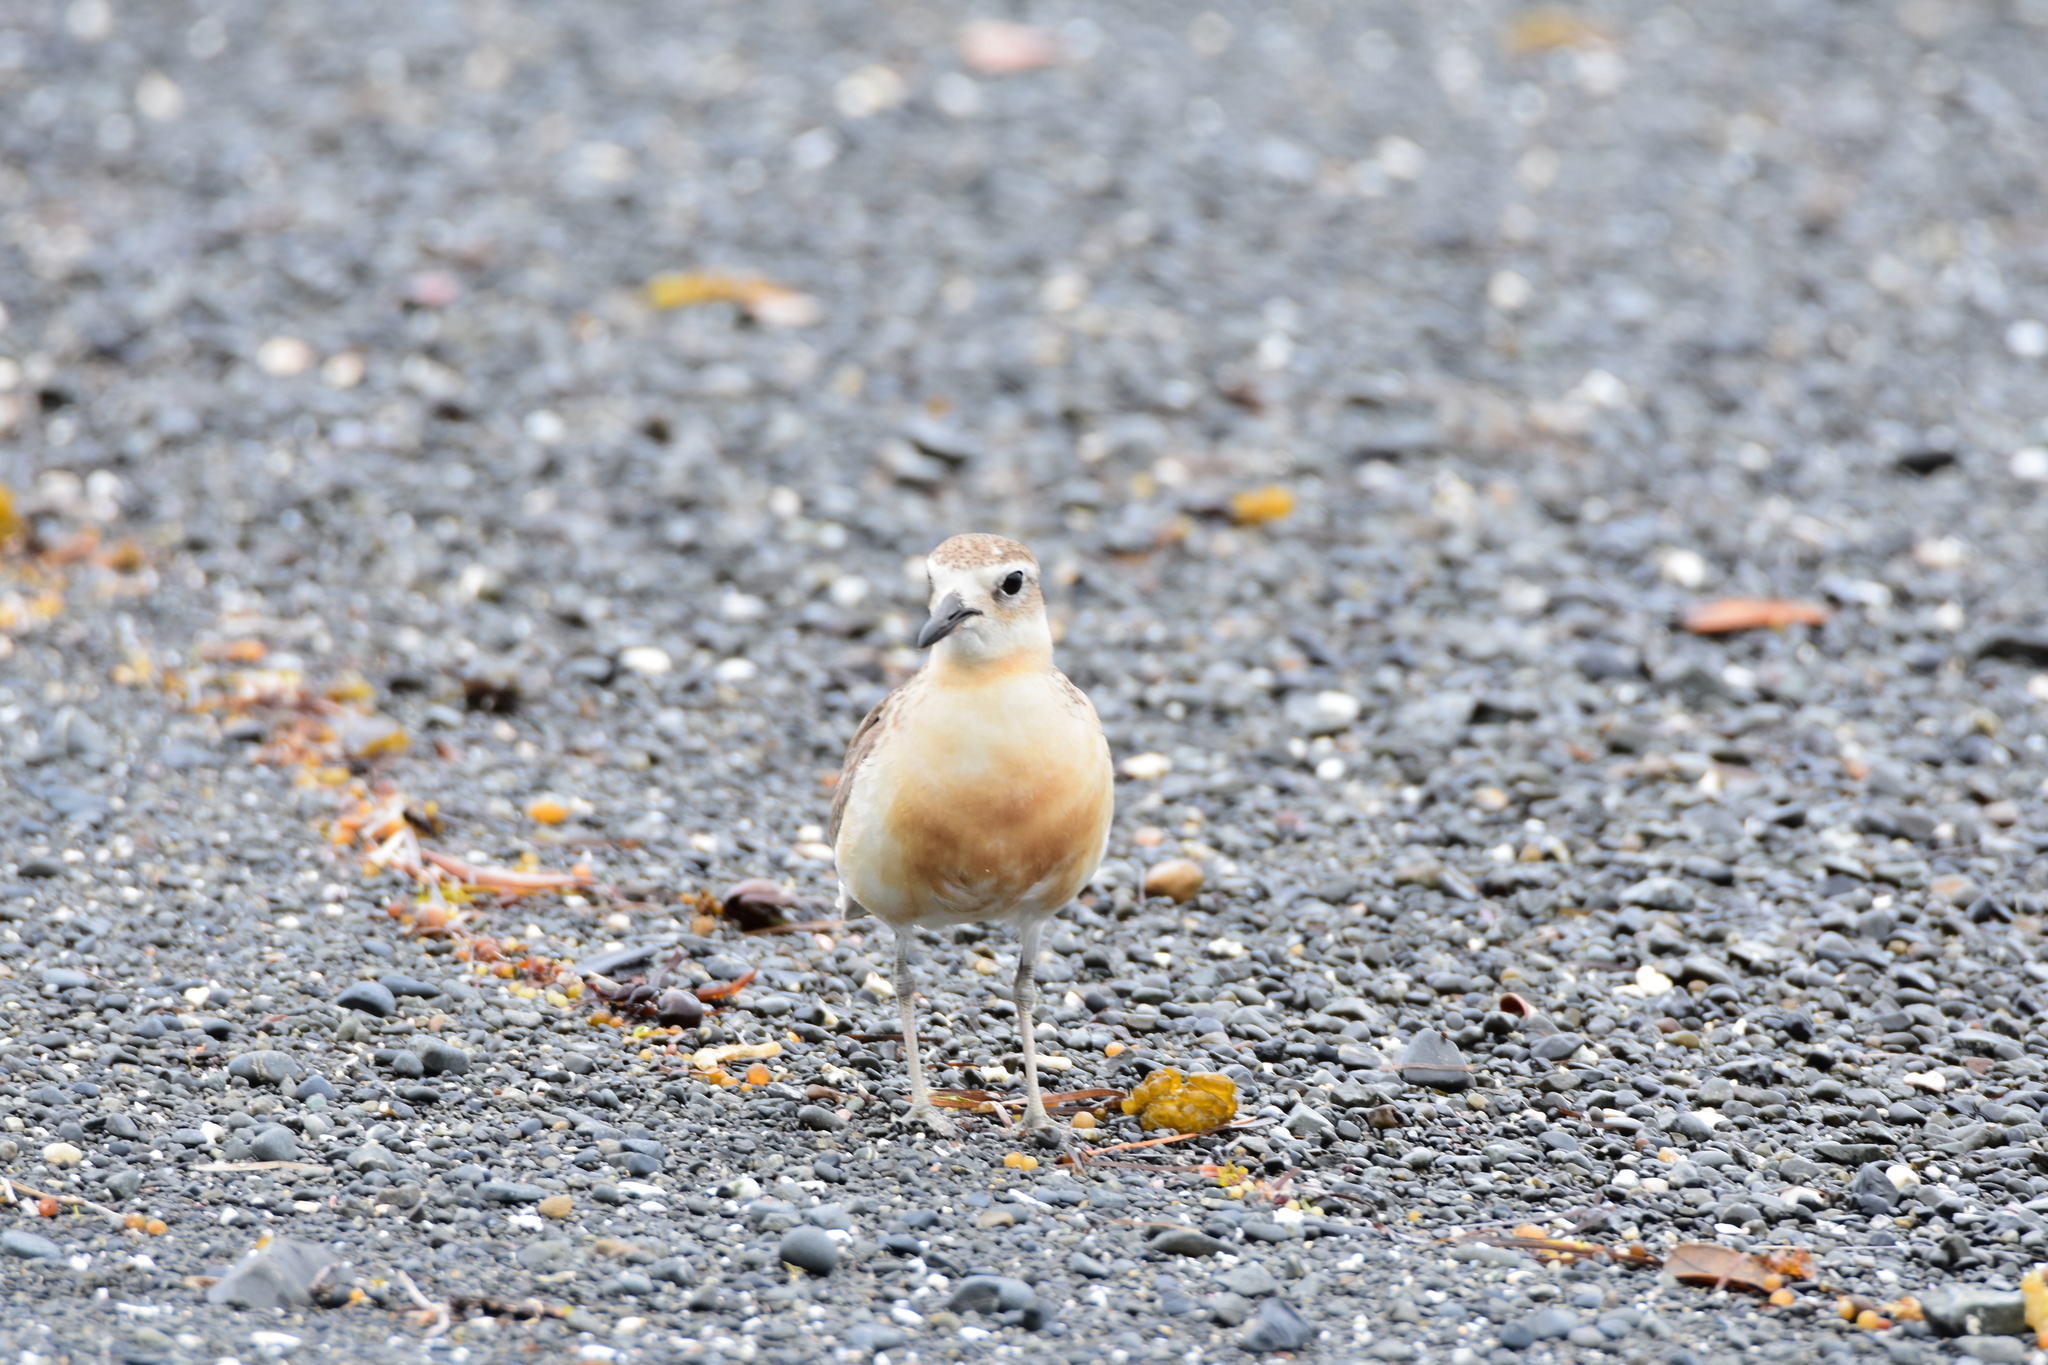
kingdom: Animalia
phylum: Chordata
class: Aves
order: Charadriiformes
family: Charadriidae
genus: Anarhynchus
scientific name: Anarhynchus
